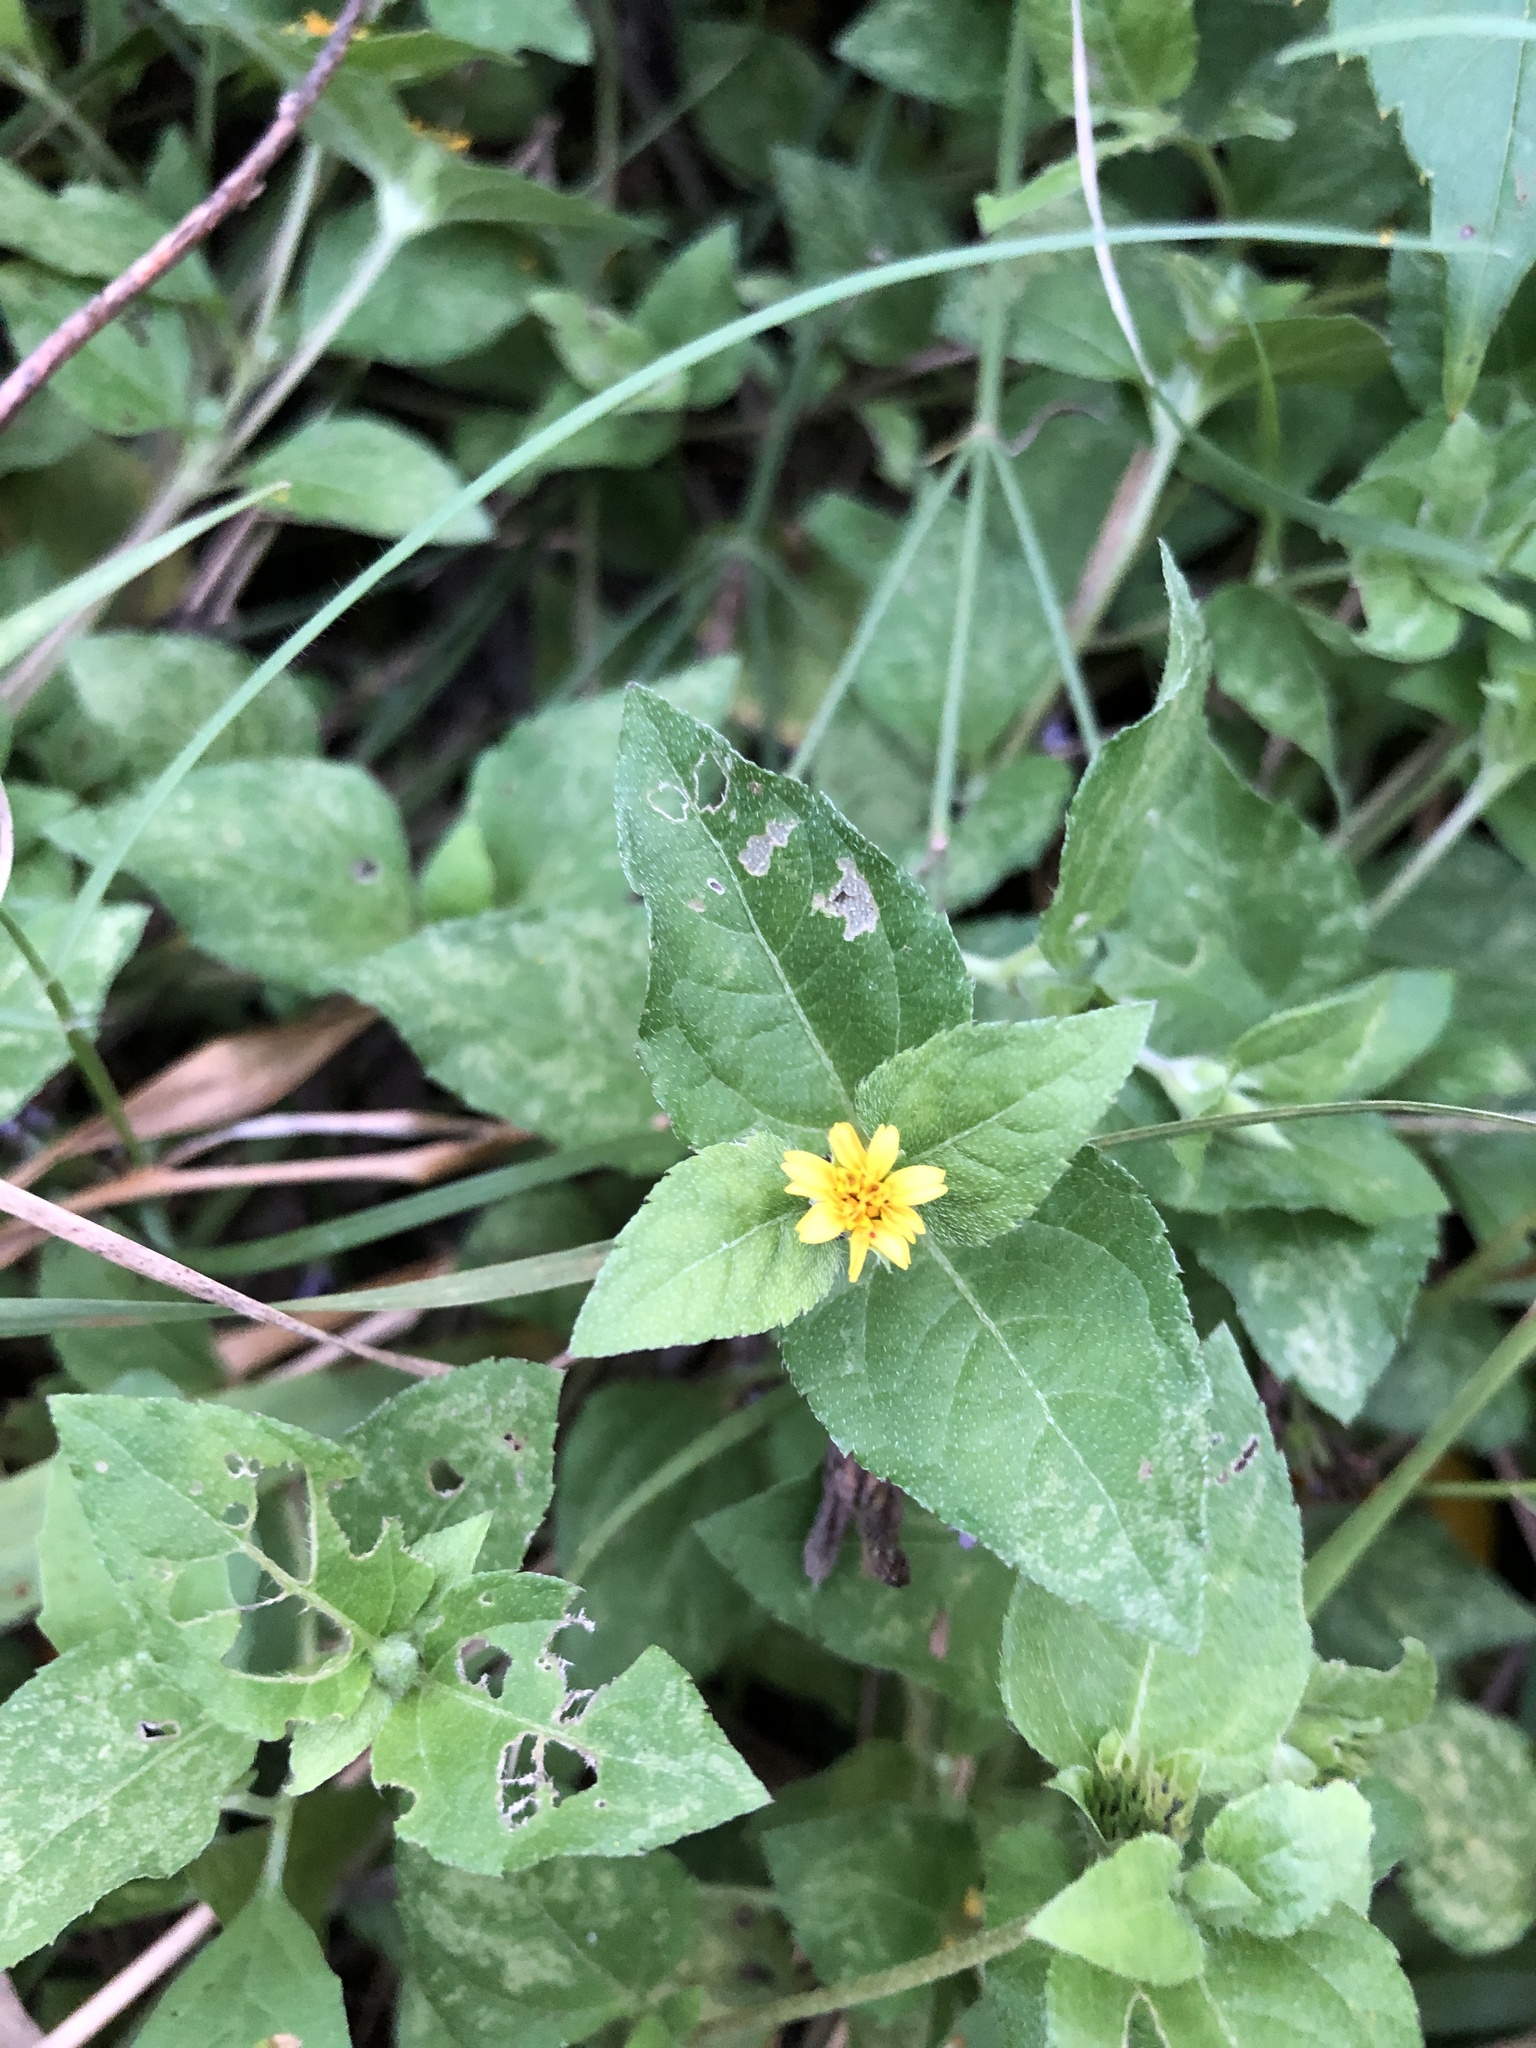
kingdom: Plantae
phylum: Tracheophyta
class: Magnoliopsida
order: Asterales
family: Asteraceae
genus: Calyptocarpus
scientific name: Calyptocarpus vialis
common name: Straggler daisy
